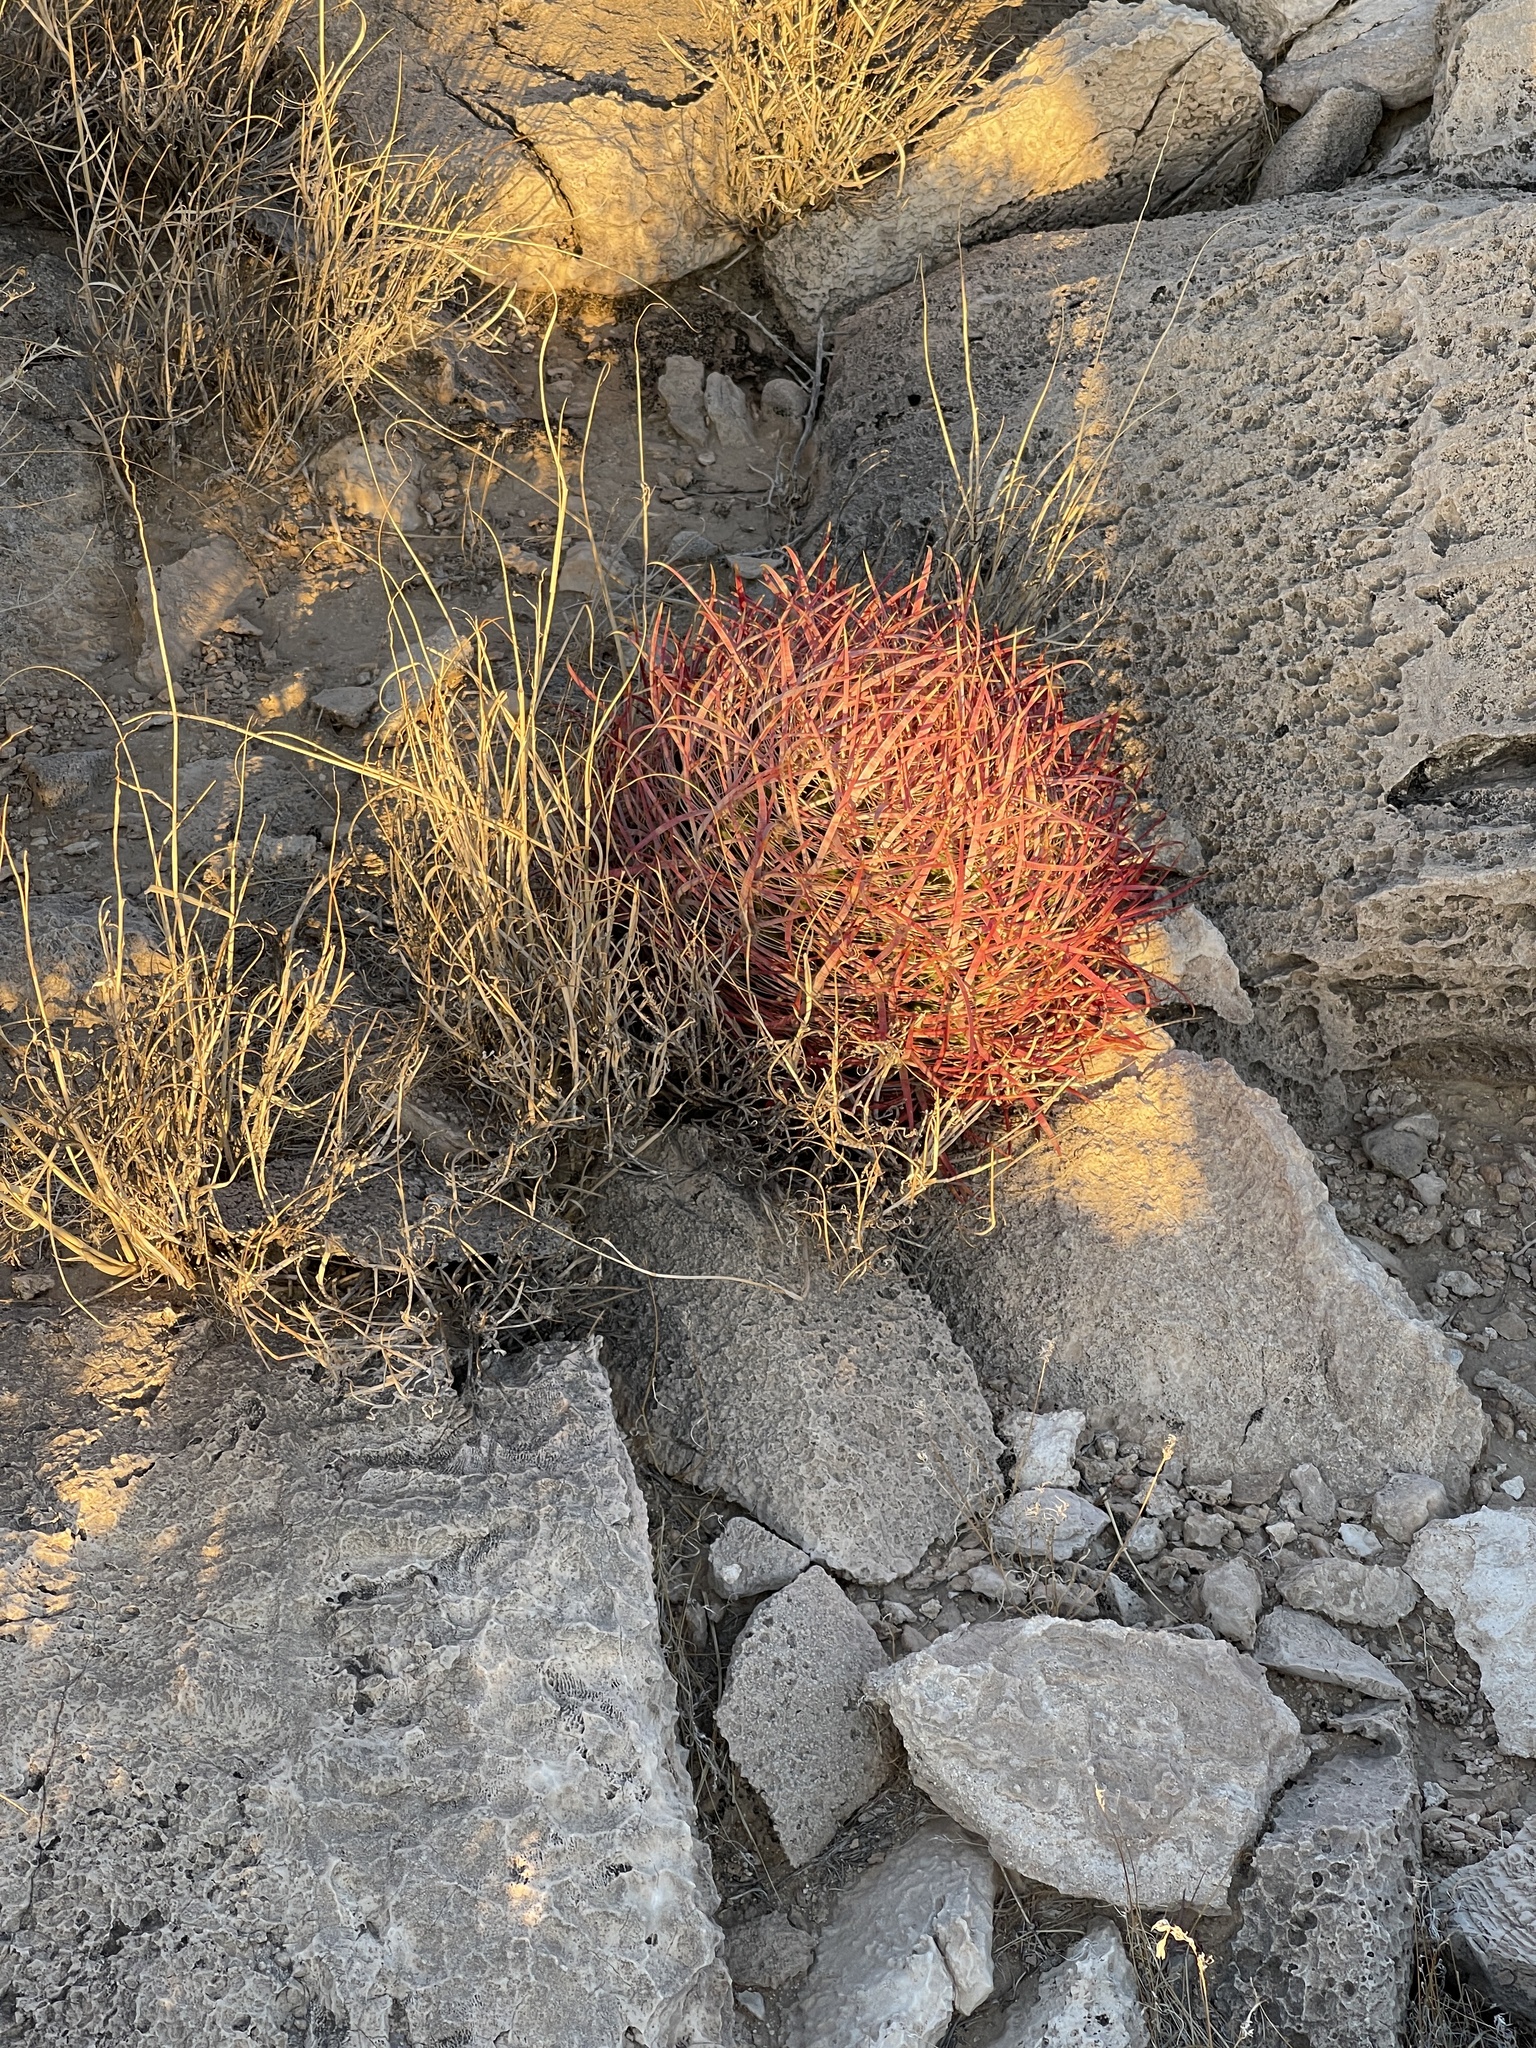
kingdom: Plantae
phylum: Tracheophyta
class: Magnoliopsida
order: Caryophyllales
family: Cactaceae
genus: Ferocactus
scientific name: Ferocactus cylindraceus
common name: California barrel cactus
